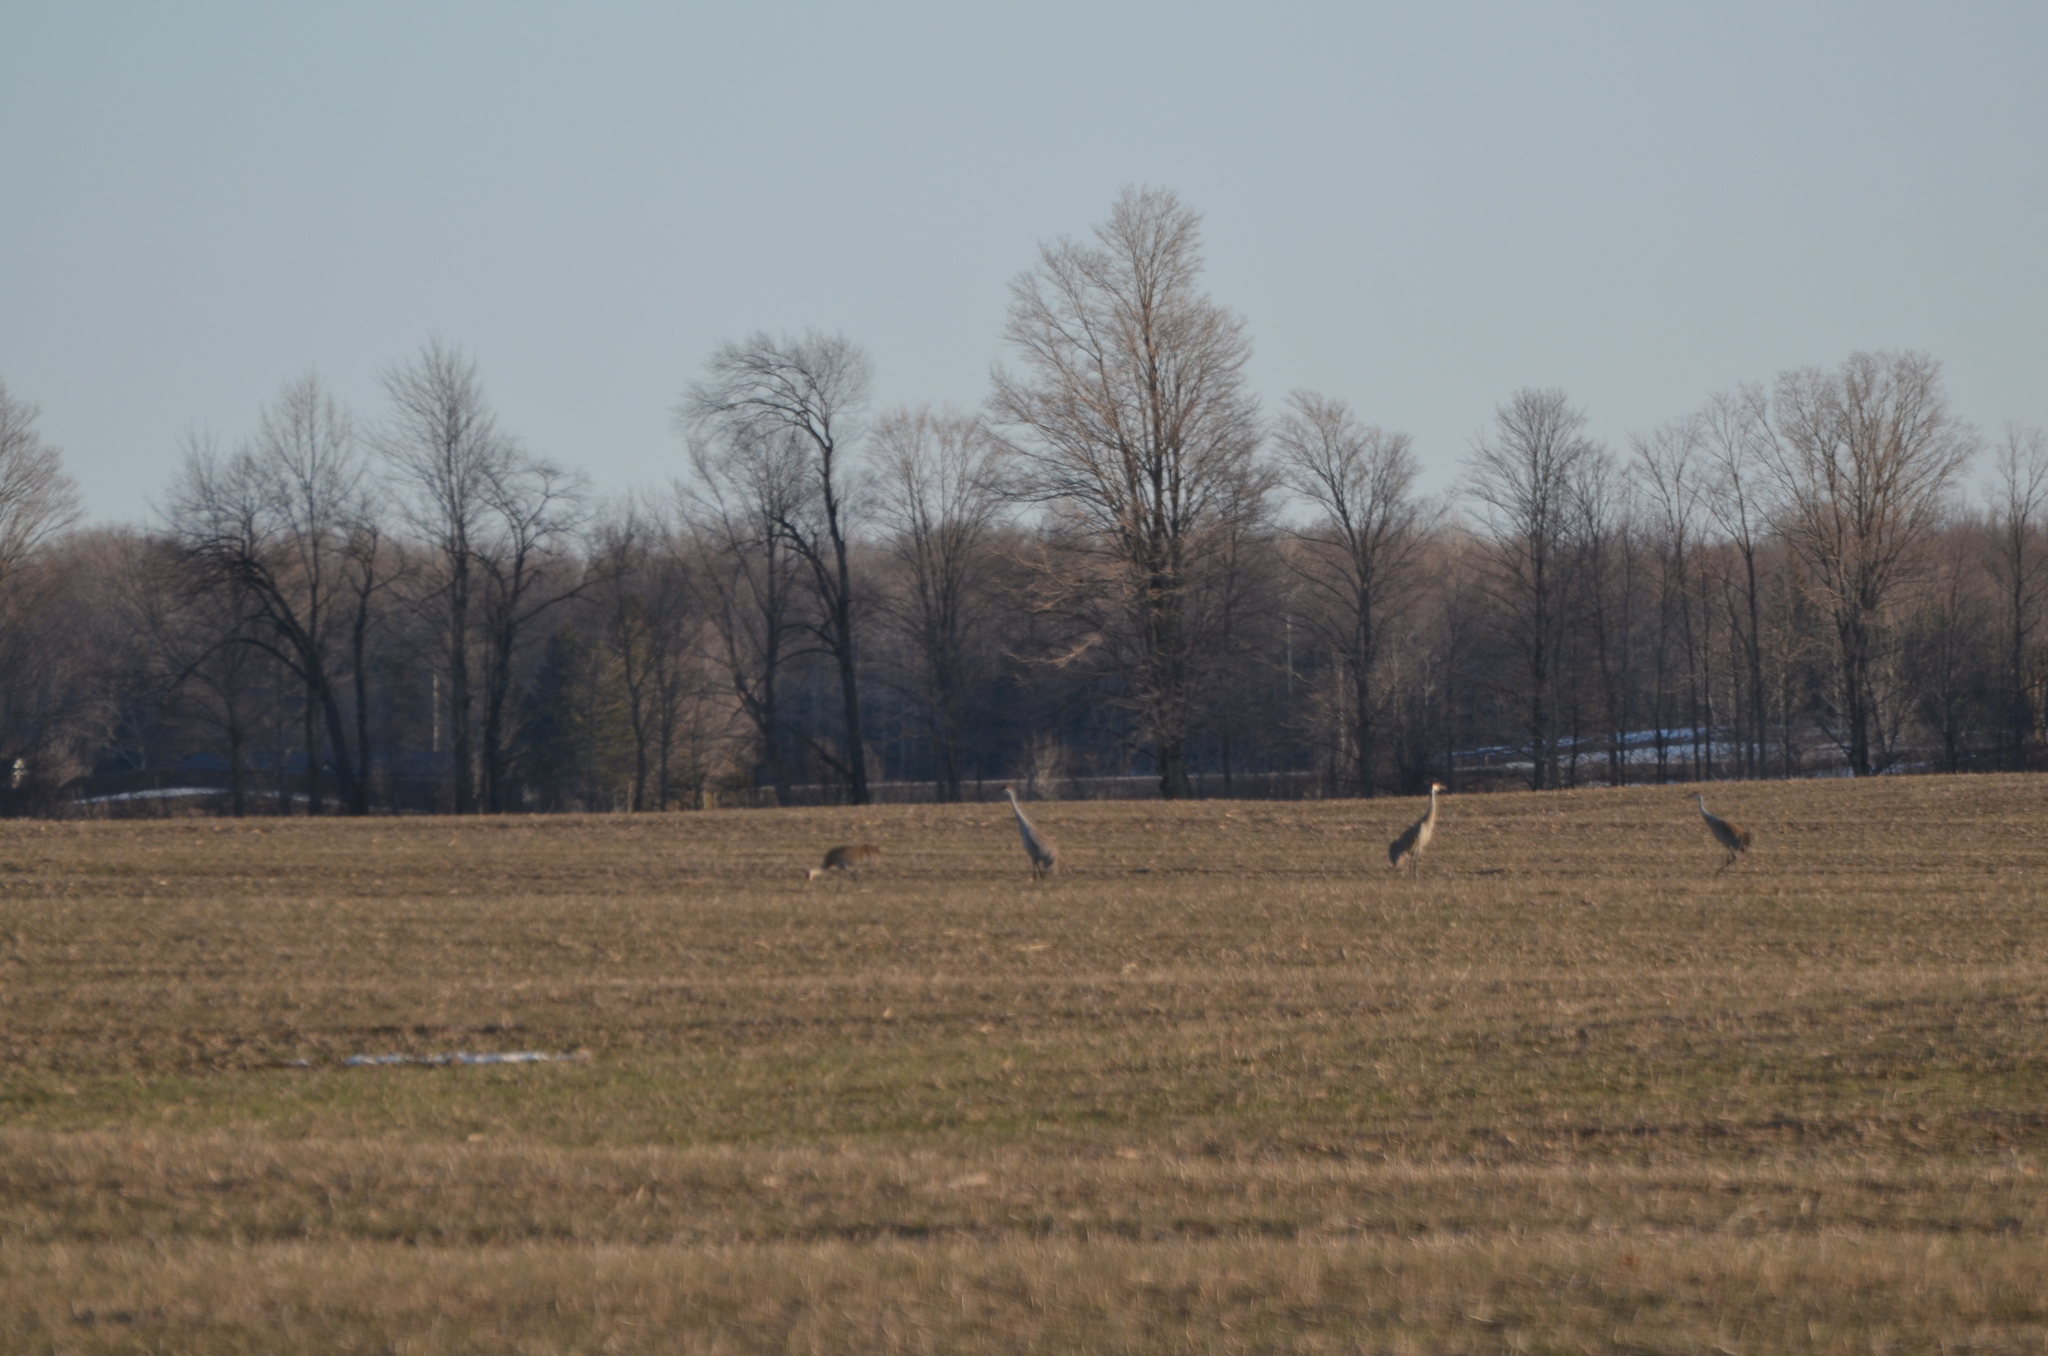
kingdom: Animalia
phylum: Chordata
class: Aves
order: Gruiformes
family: Gruidae
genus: Grus
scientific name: Grus canadensis
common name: Sandhill crane
